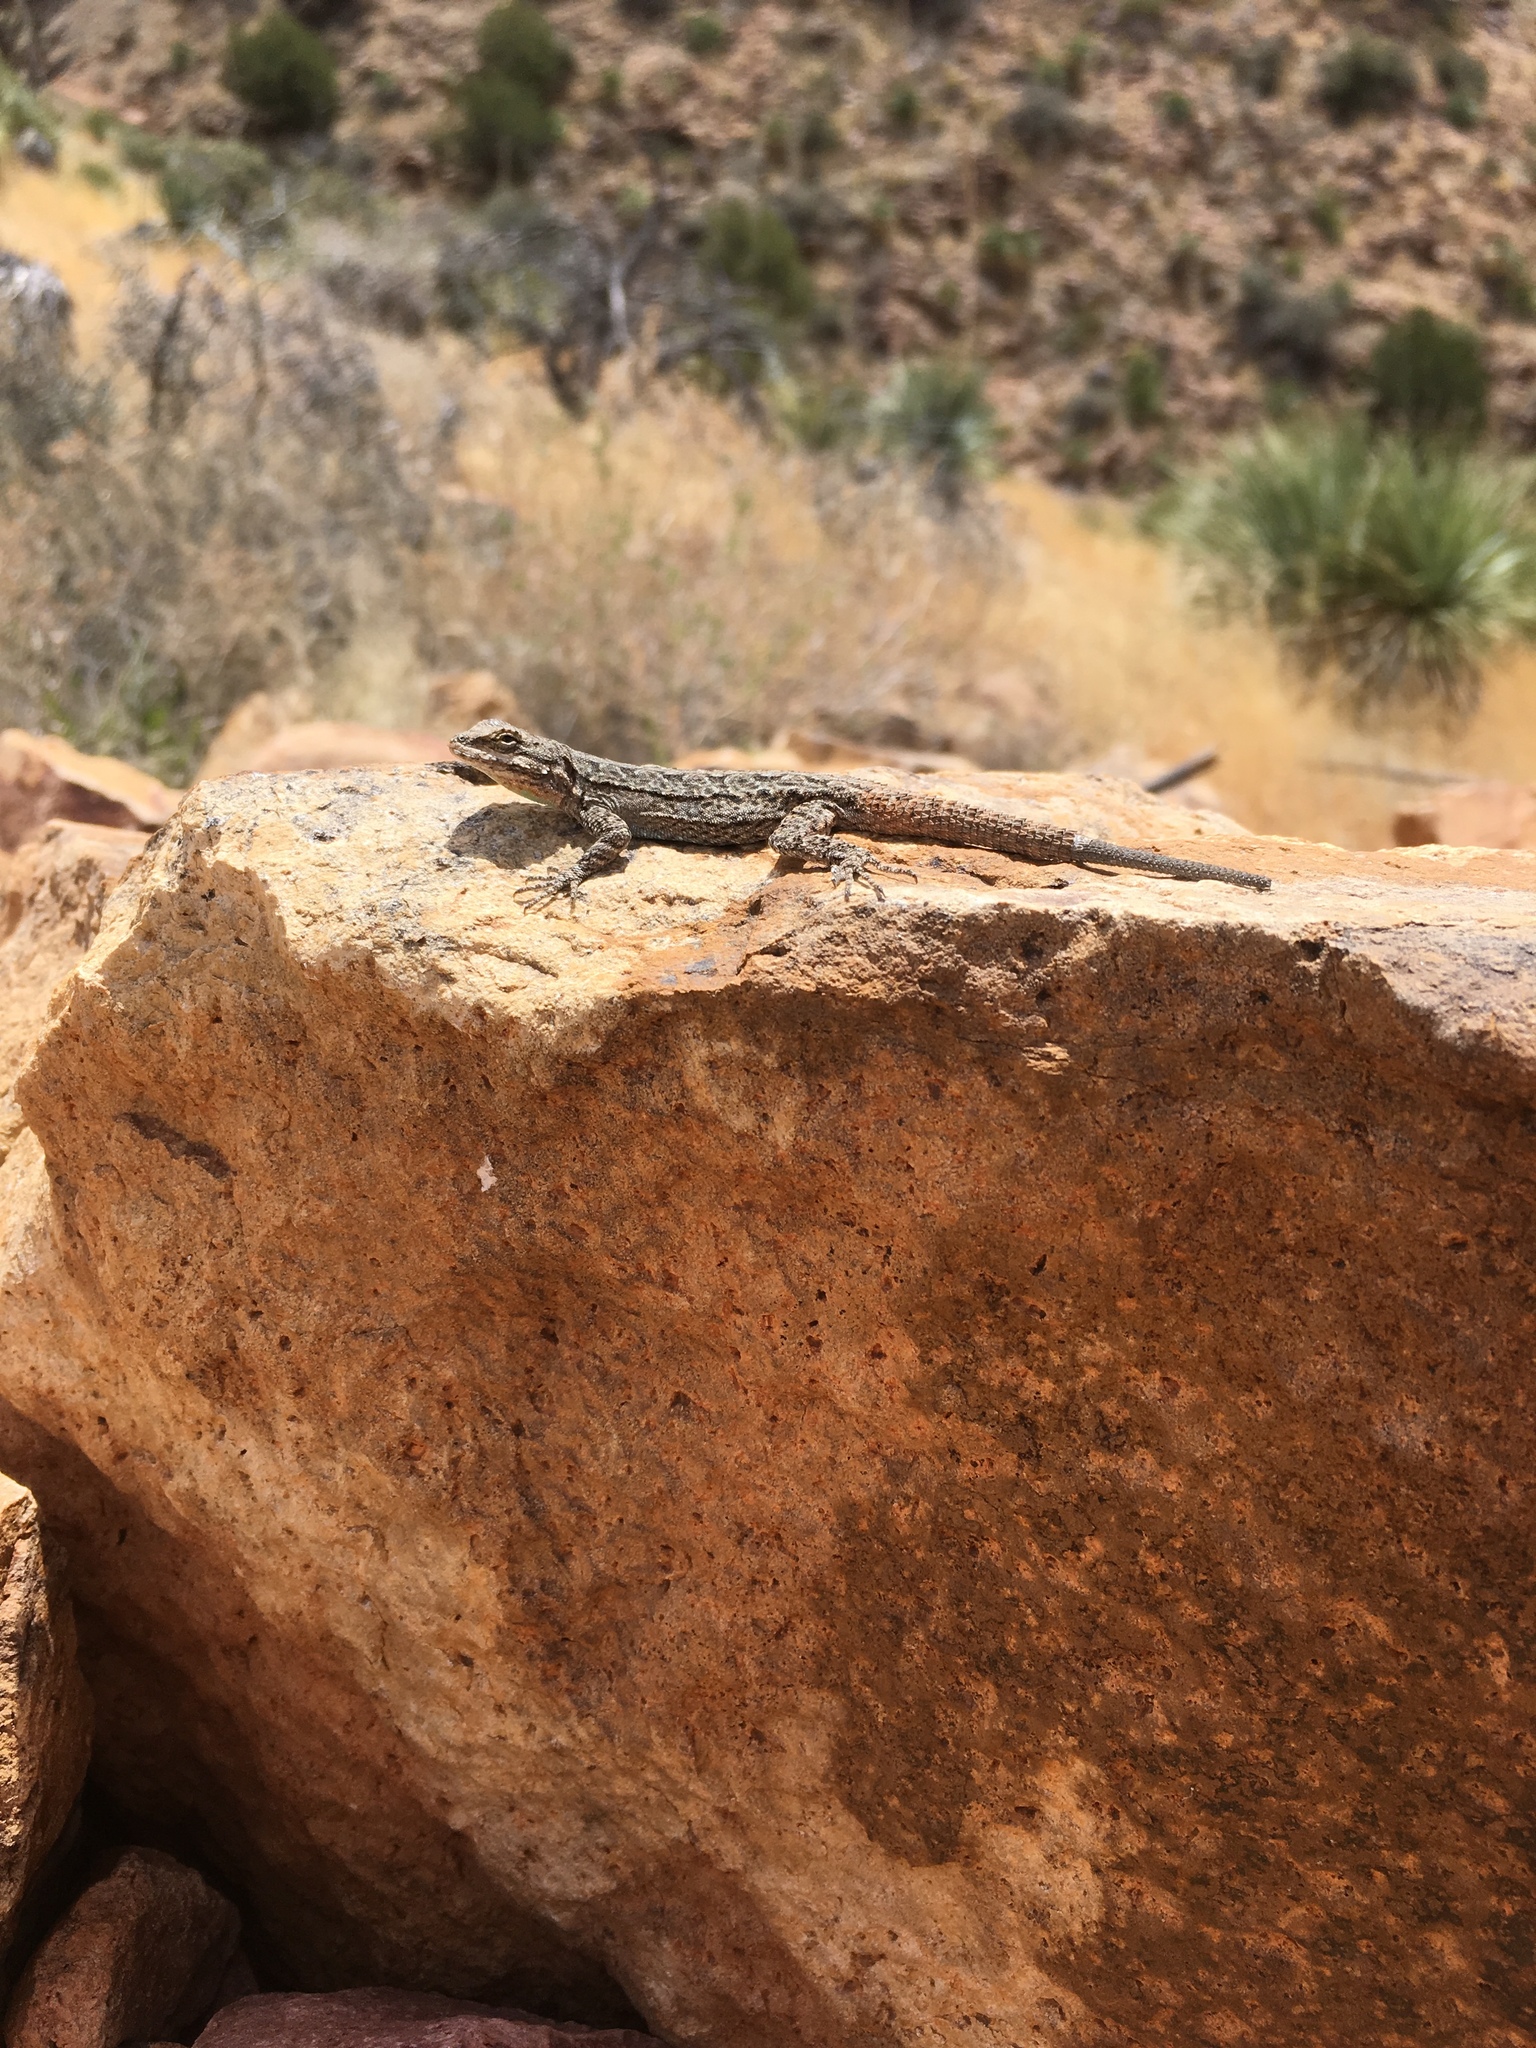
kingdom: Animalia
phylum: Chordata
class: Squamata
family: Phrynosomatidae
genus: Urosaurus
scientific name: Urosaurus ornatus
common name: Ornate tree lizard
